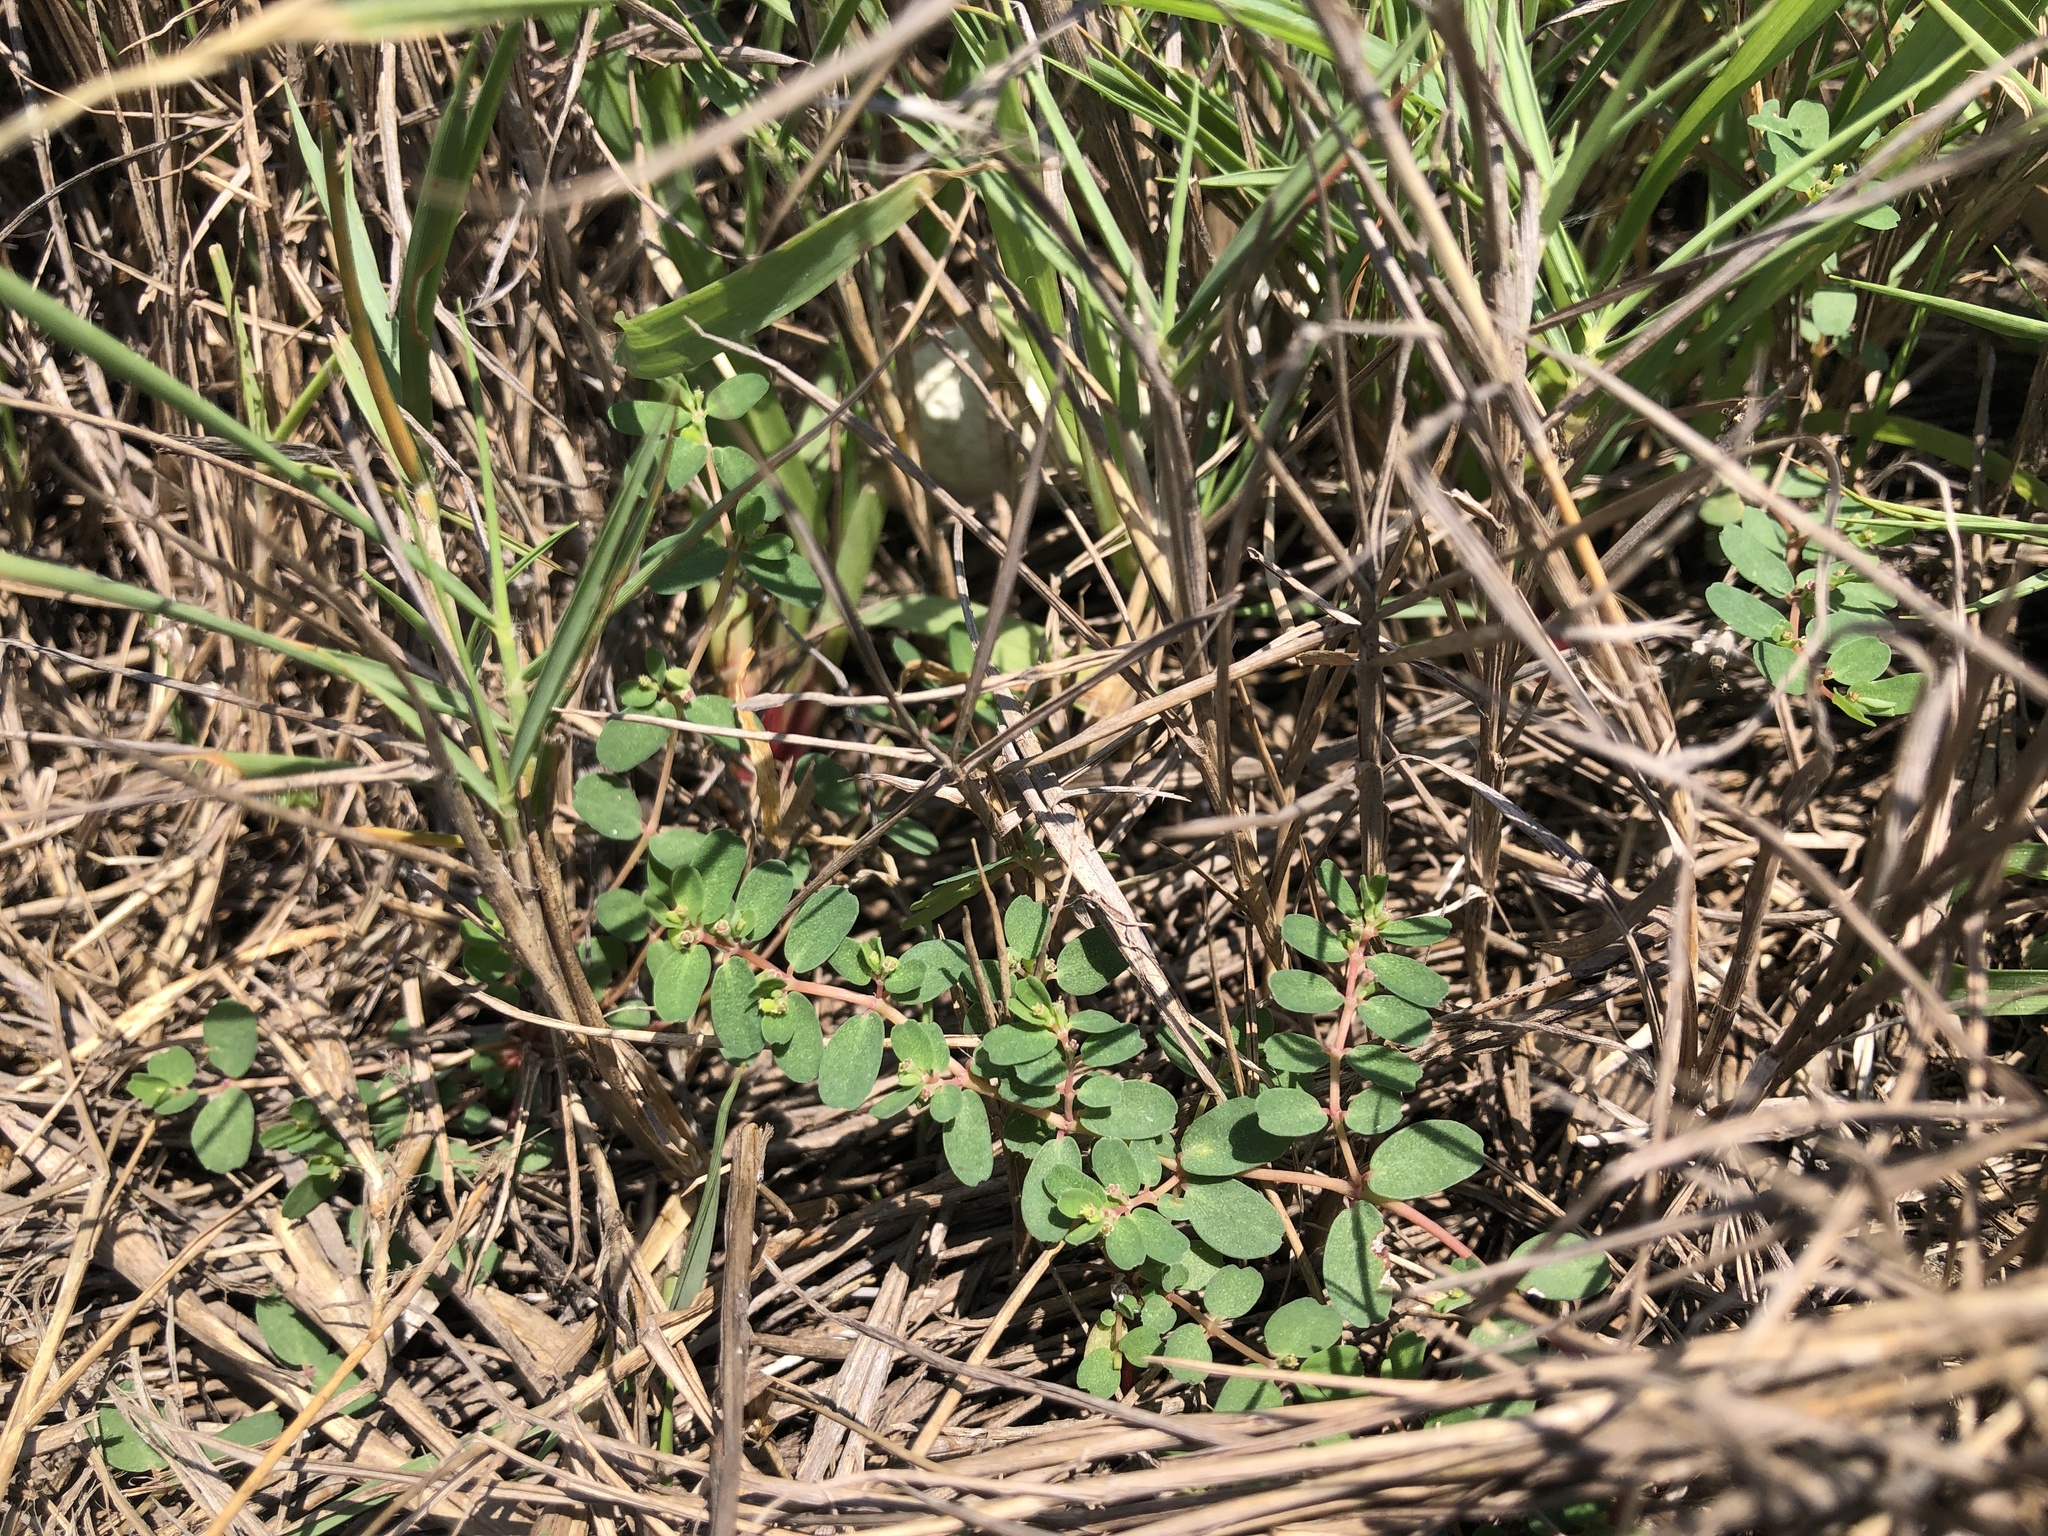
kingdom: Plantae
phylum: Tracheophyta
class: Magnoliopsida
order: Malpighiales
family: Euphorbiaceae
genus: Euphorbia
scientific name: Euphorbia taihsiensis
